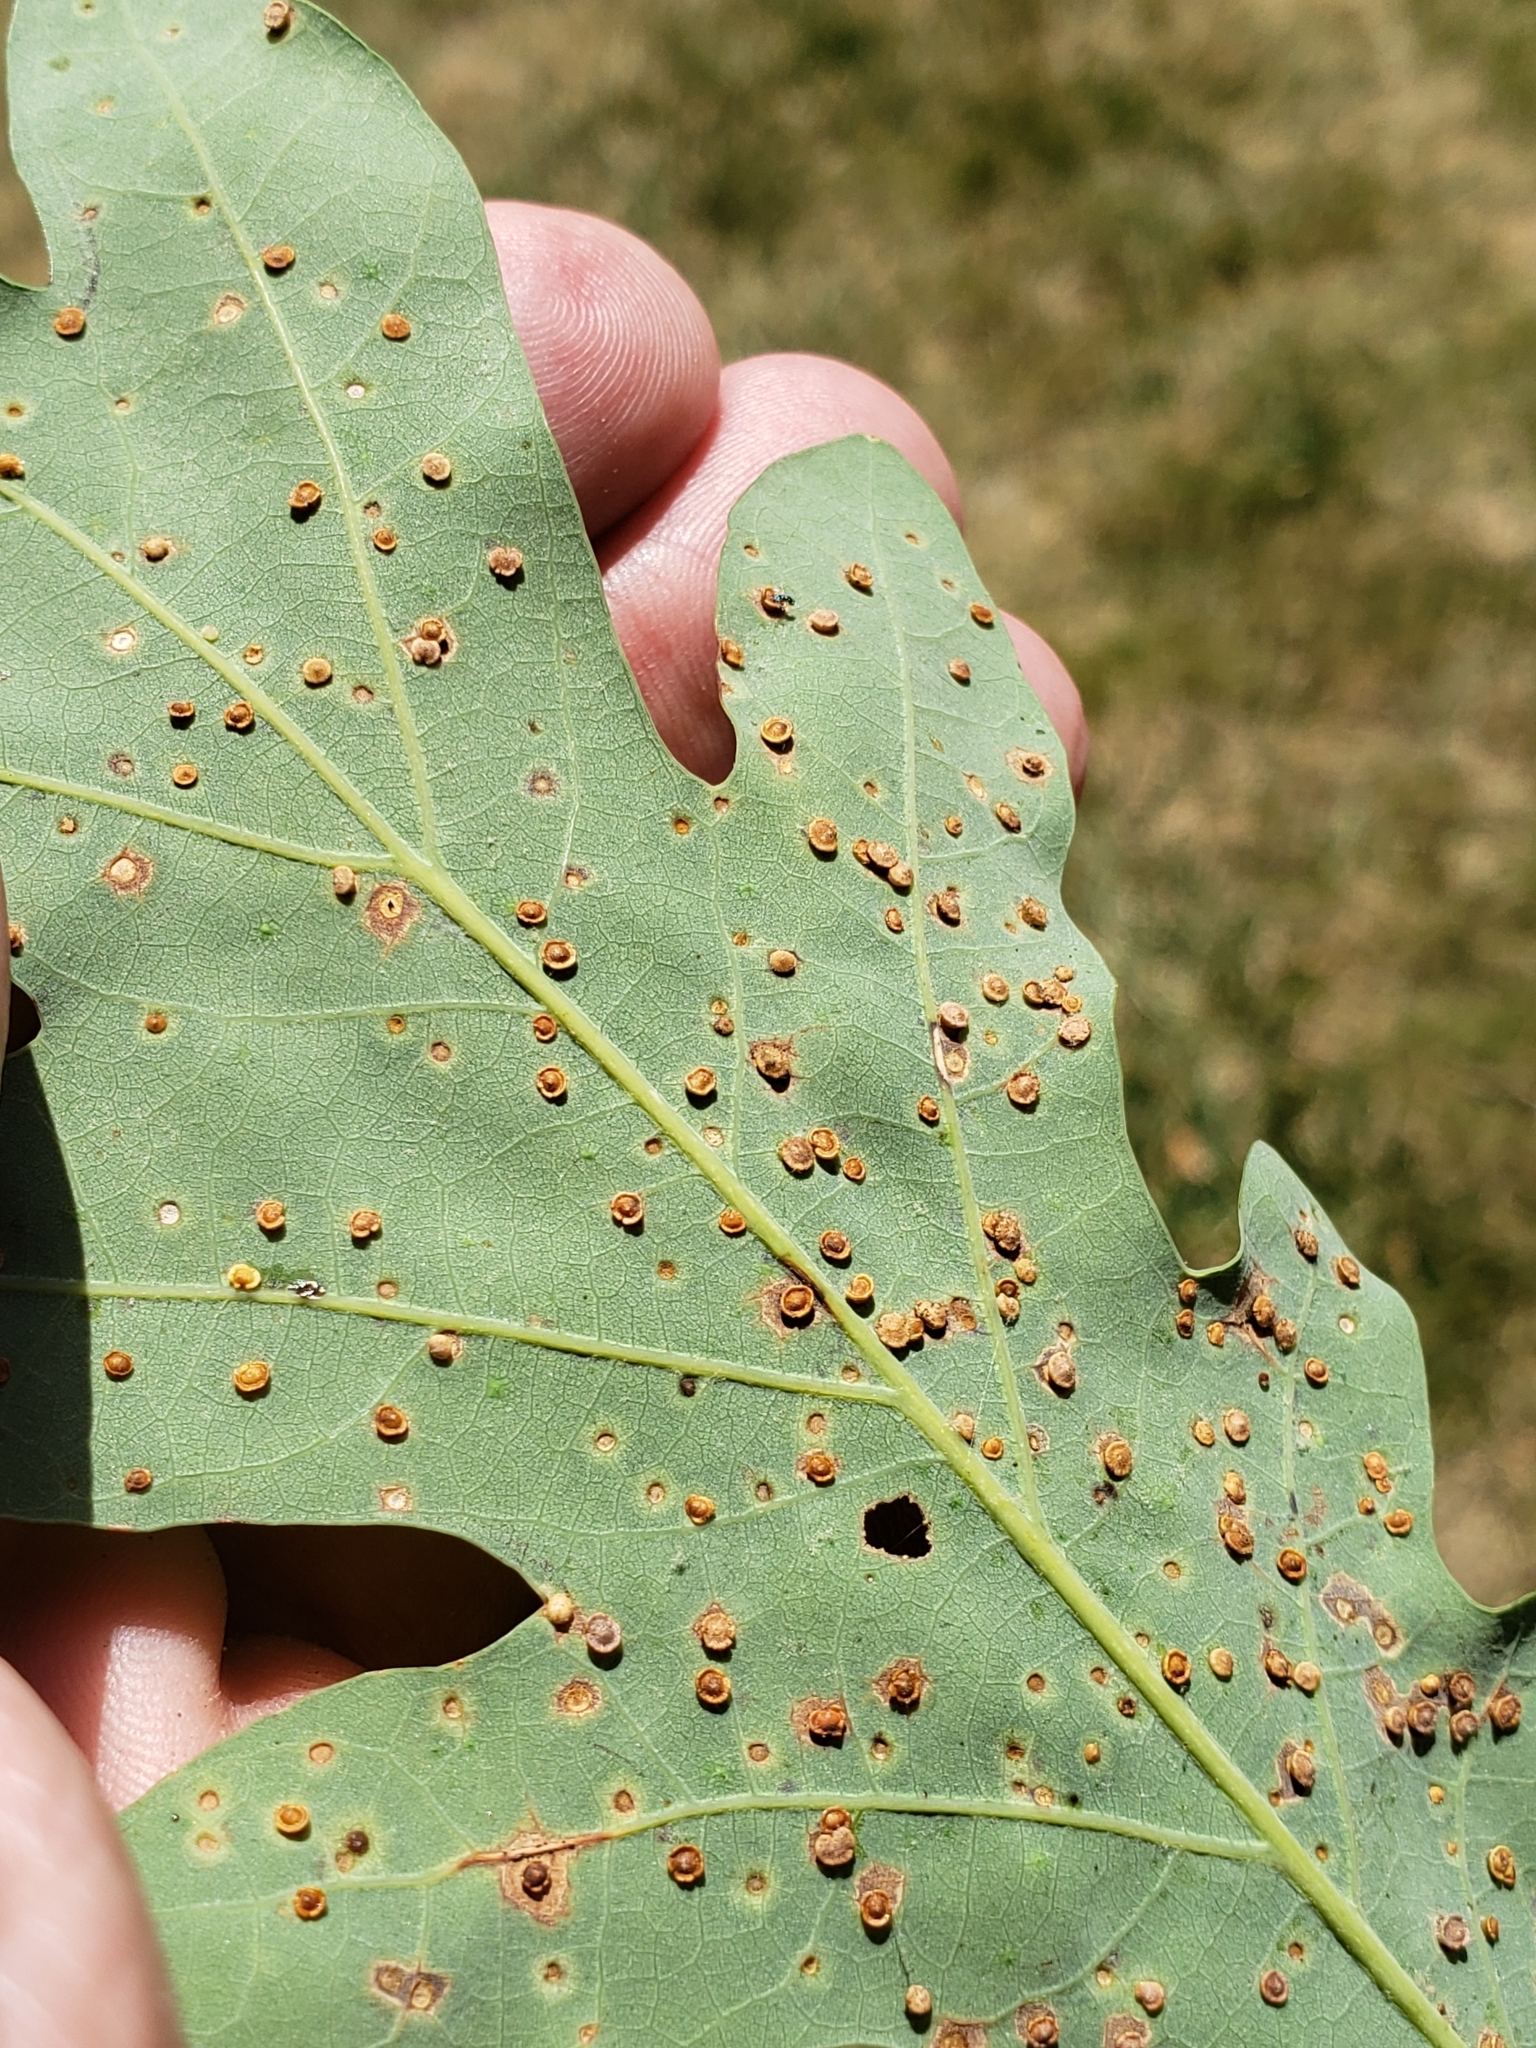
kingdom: Animalia
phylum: Arthropoda
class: Insecta
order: Hymenoptera
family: Cynipidae
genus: Neuroterus
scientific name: Neuroterus
